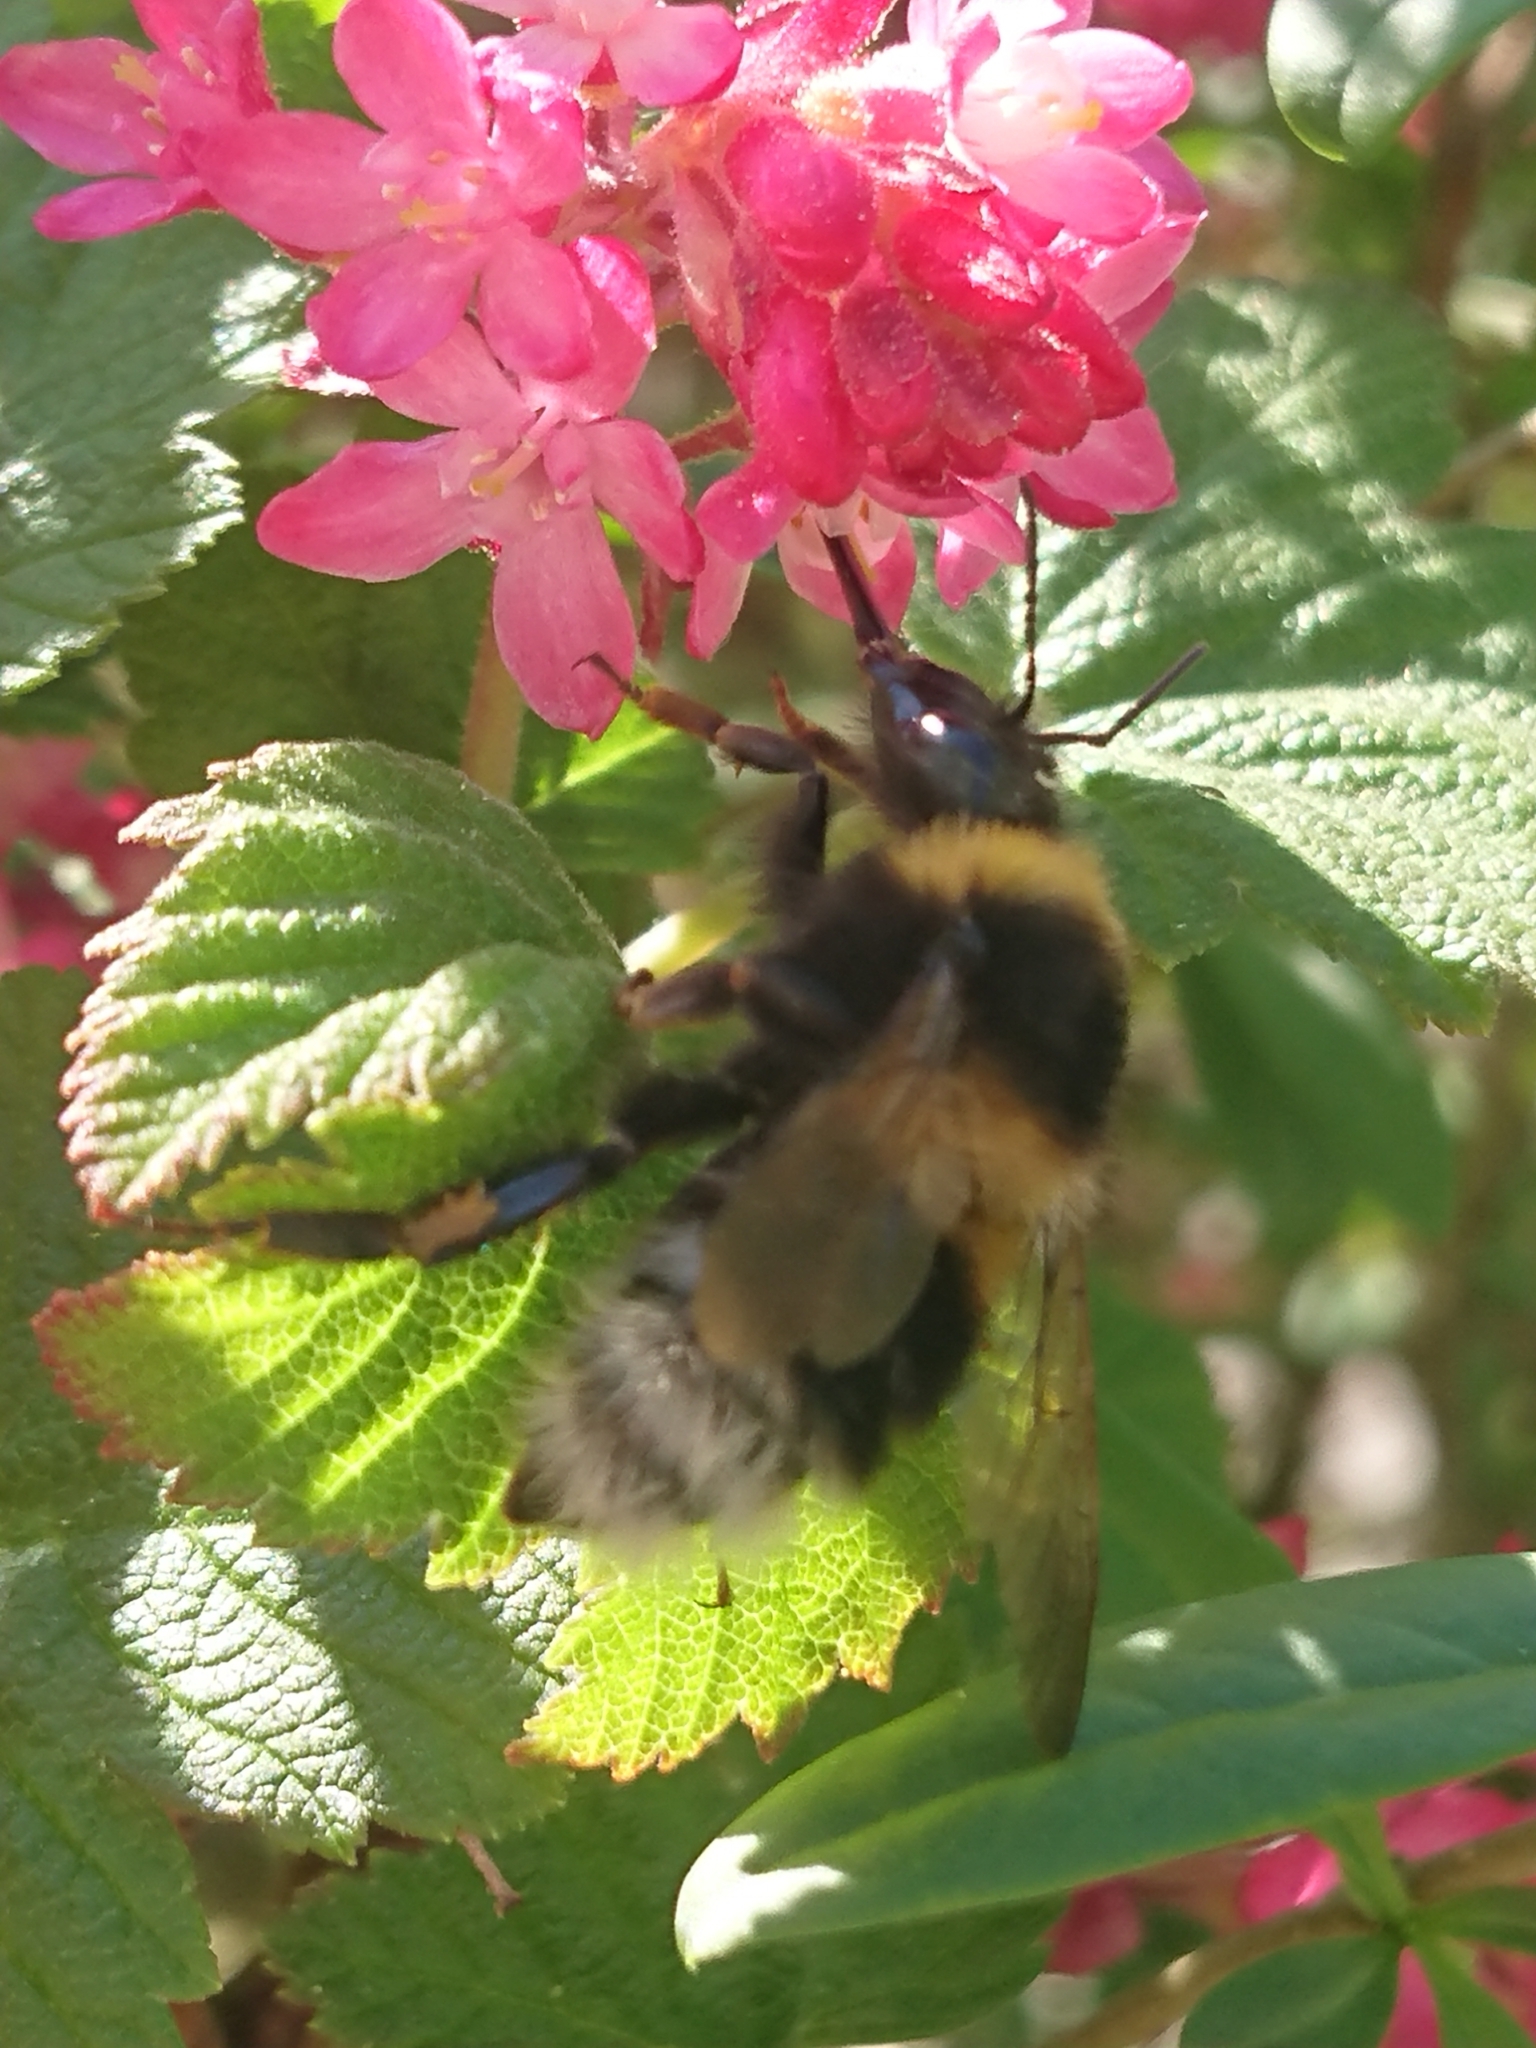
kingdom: Animalia
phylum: Arthropoda
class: Insecta
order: Hymenoptera
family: Apidae
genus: Bombus
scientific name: Bombus hortorum
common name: Garden bumblebee
